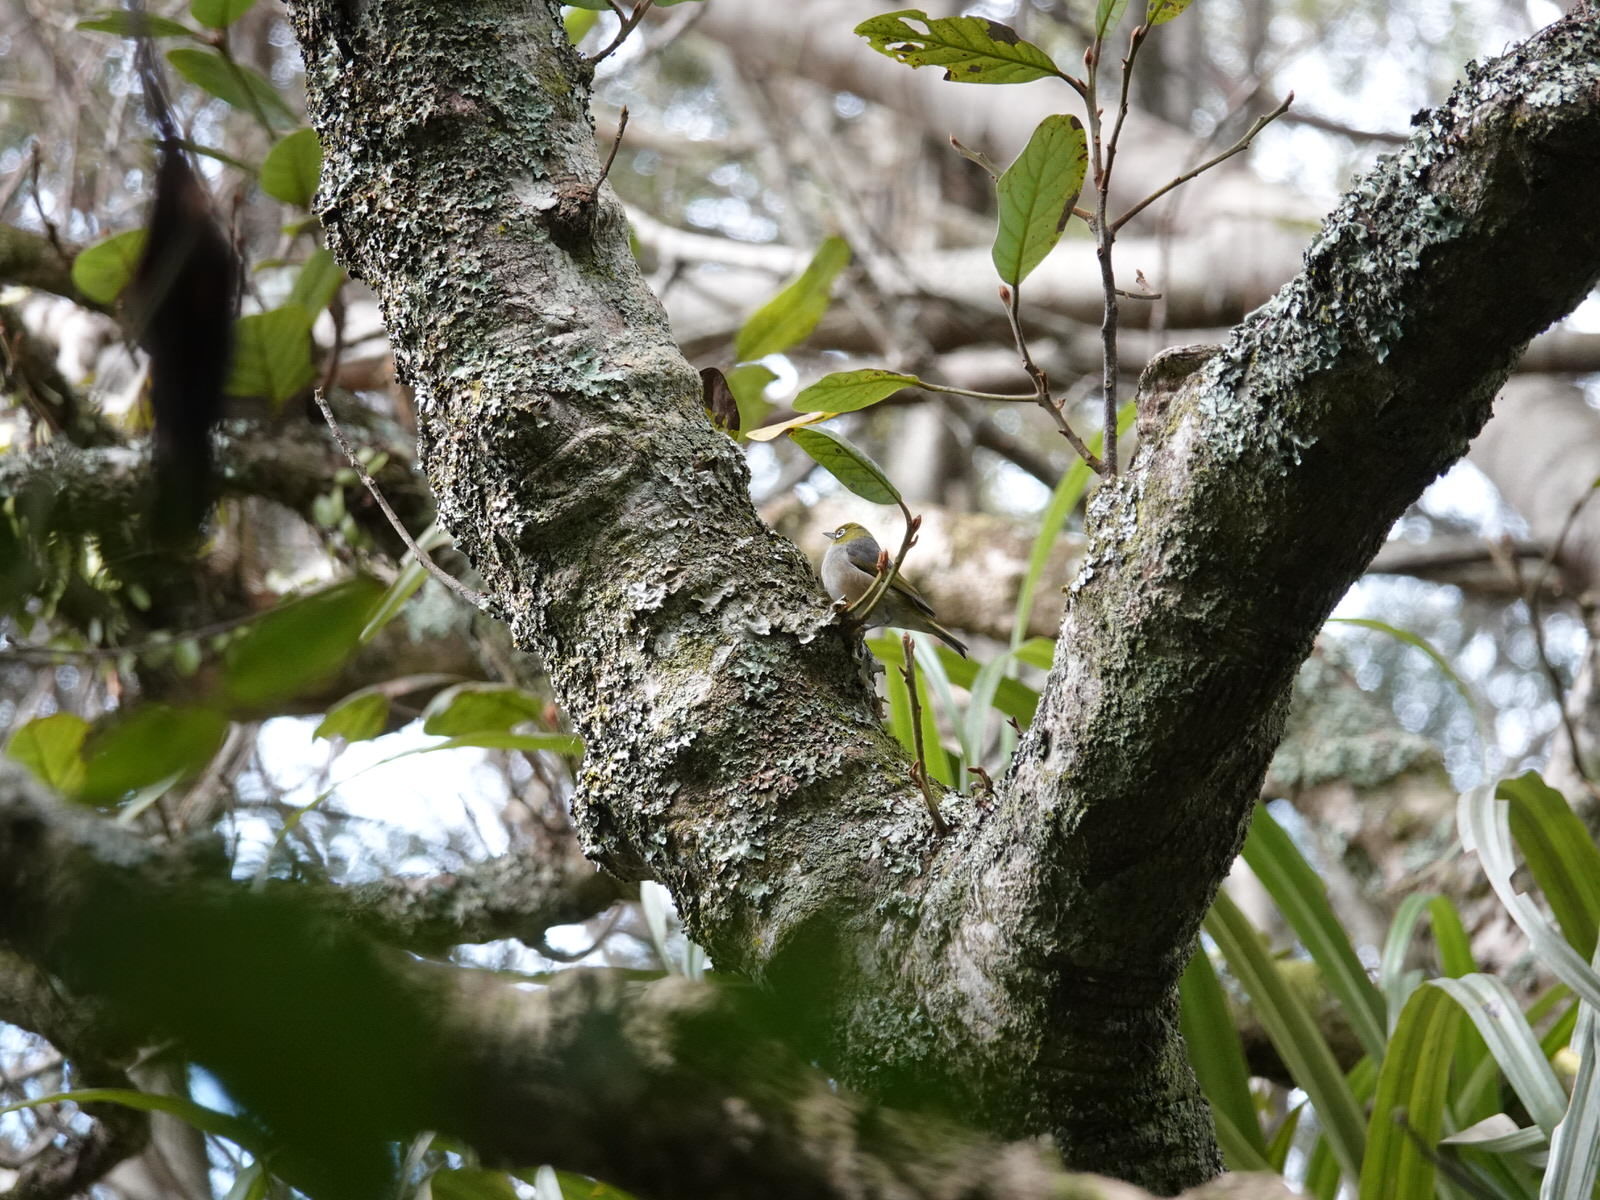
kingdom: Animalia
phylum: Chordata
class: Aves
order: Passeriformes
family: Zosteropidae
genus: Zosterops
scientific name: Zosterops lateralis
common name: Silvereye
